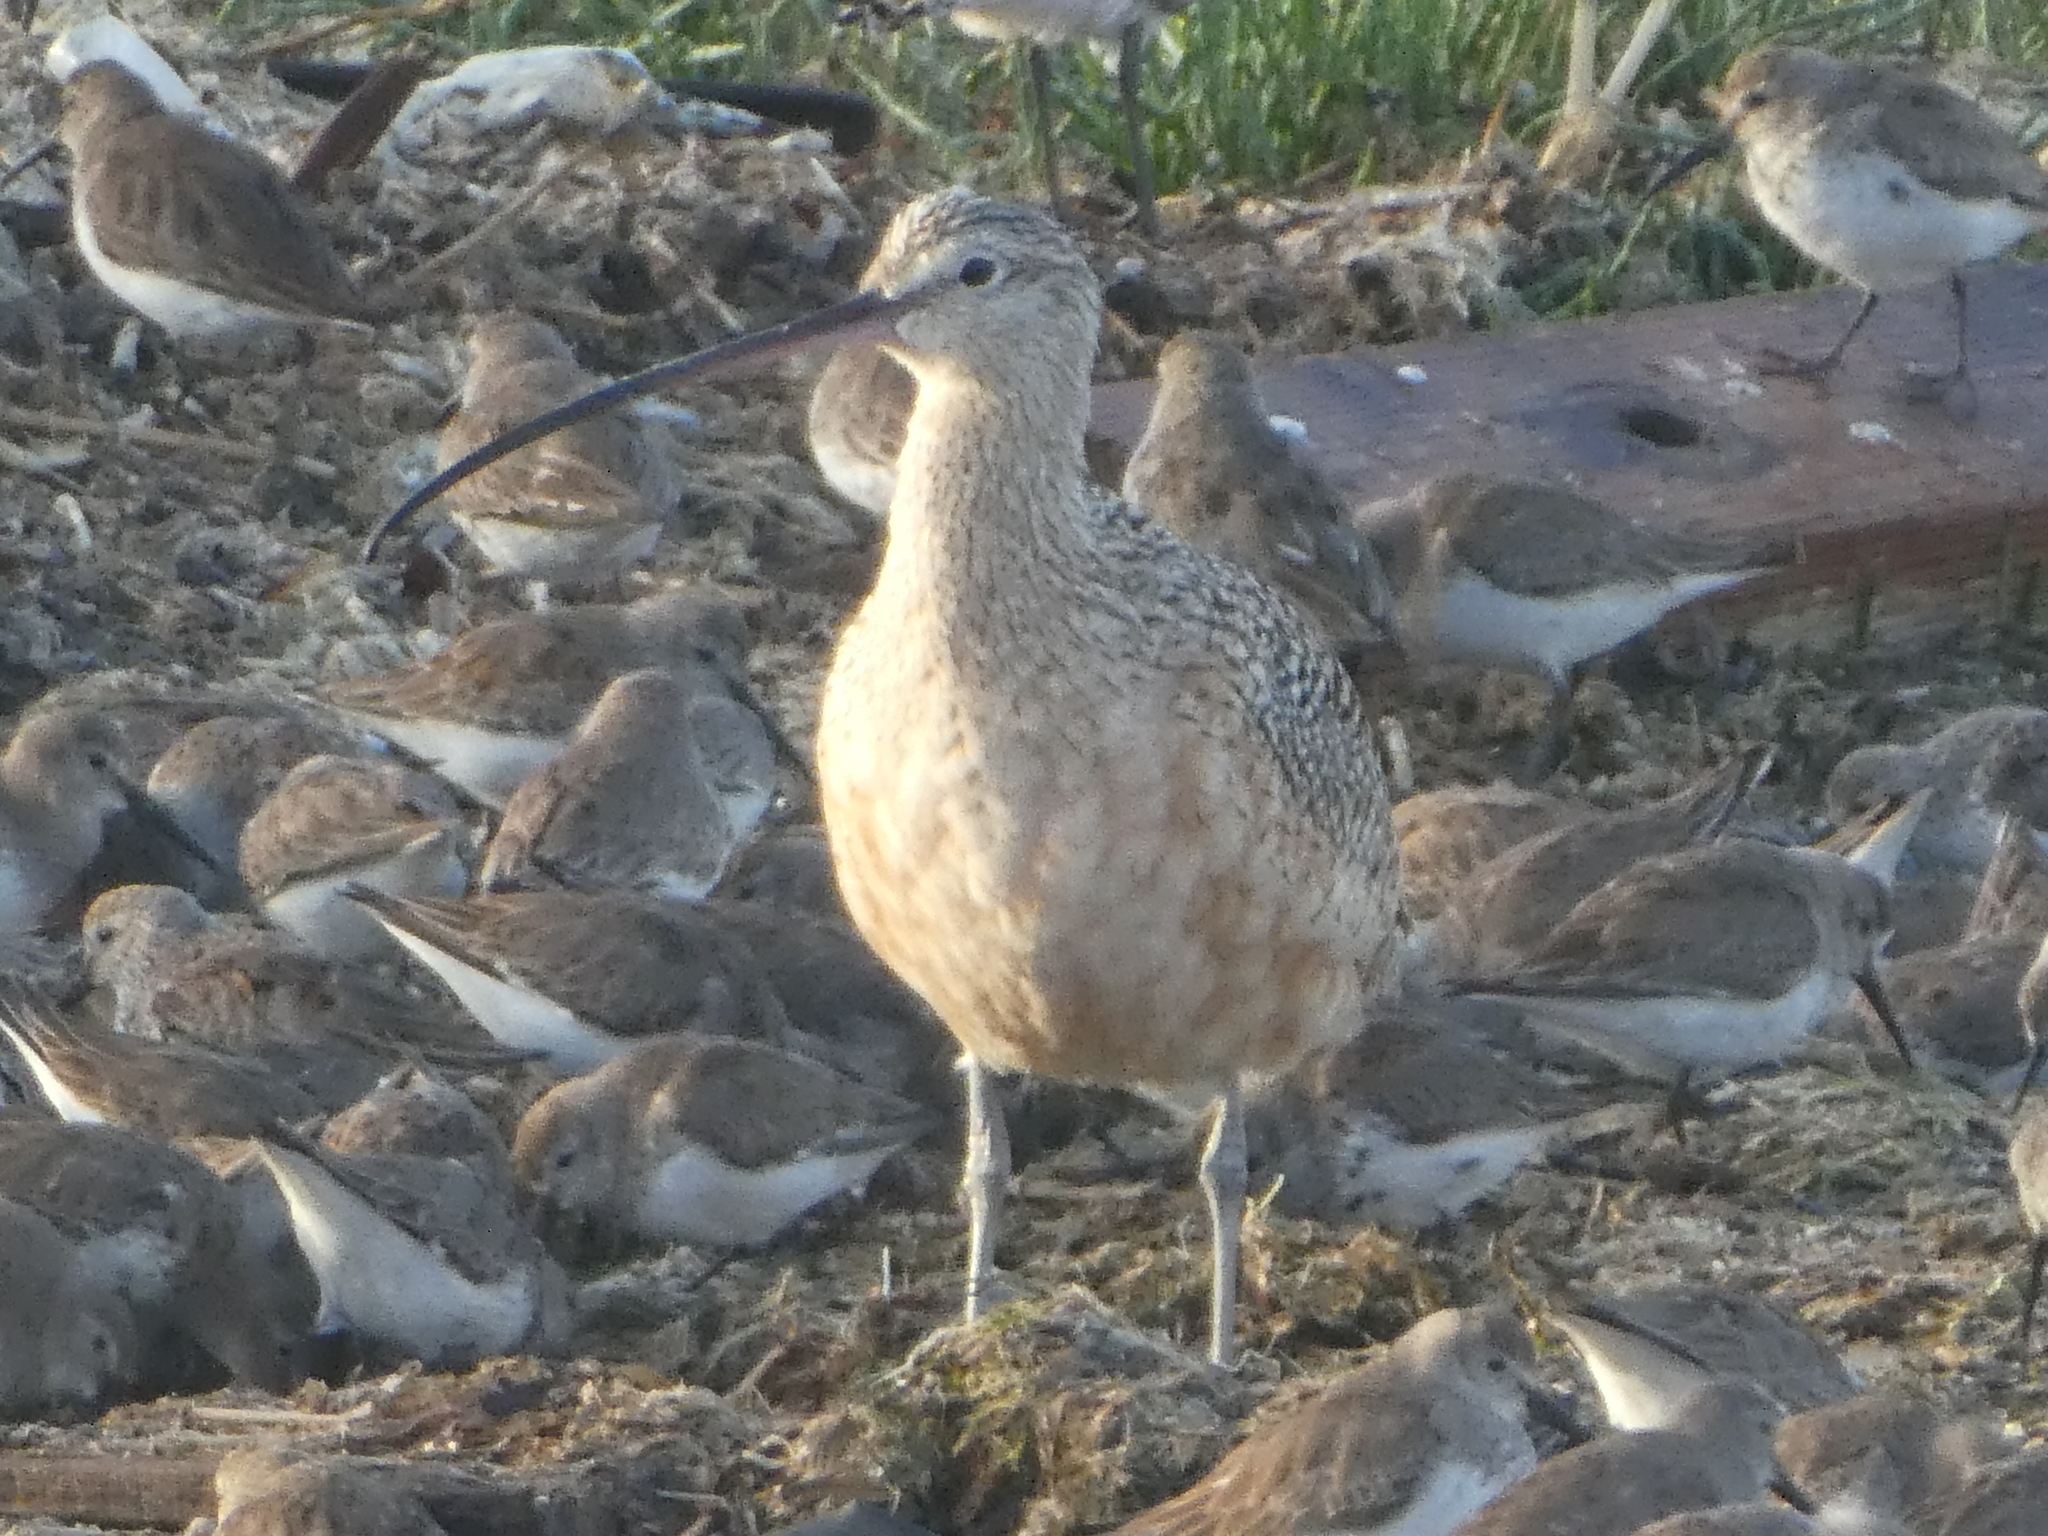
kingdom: Animalia
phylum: Chordata
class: Aves
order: Charadriiformes
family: Scolopacidae
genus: Numenius
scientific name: Numenius americanus
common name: Long-billed curlew
